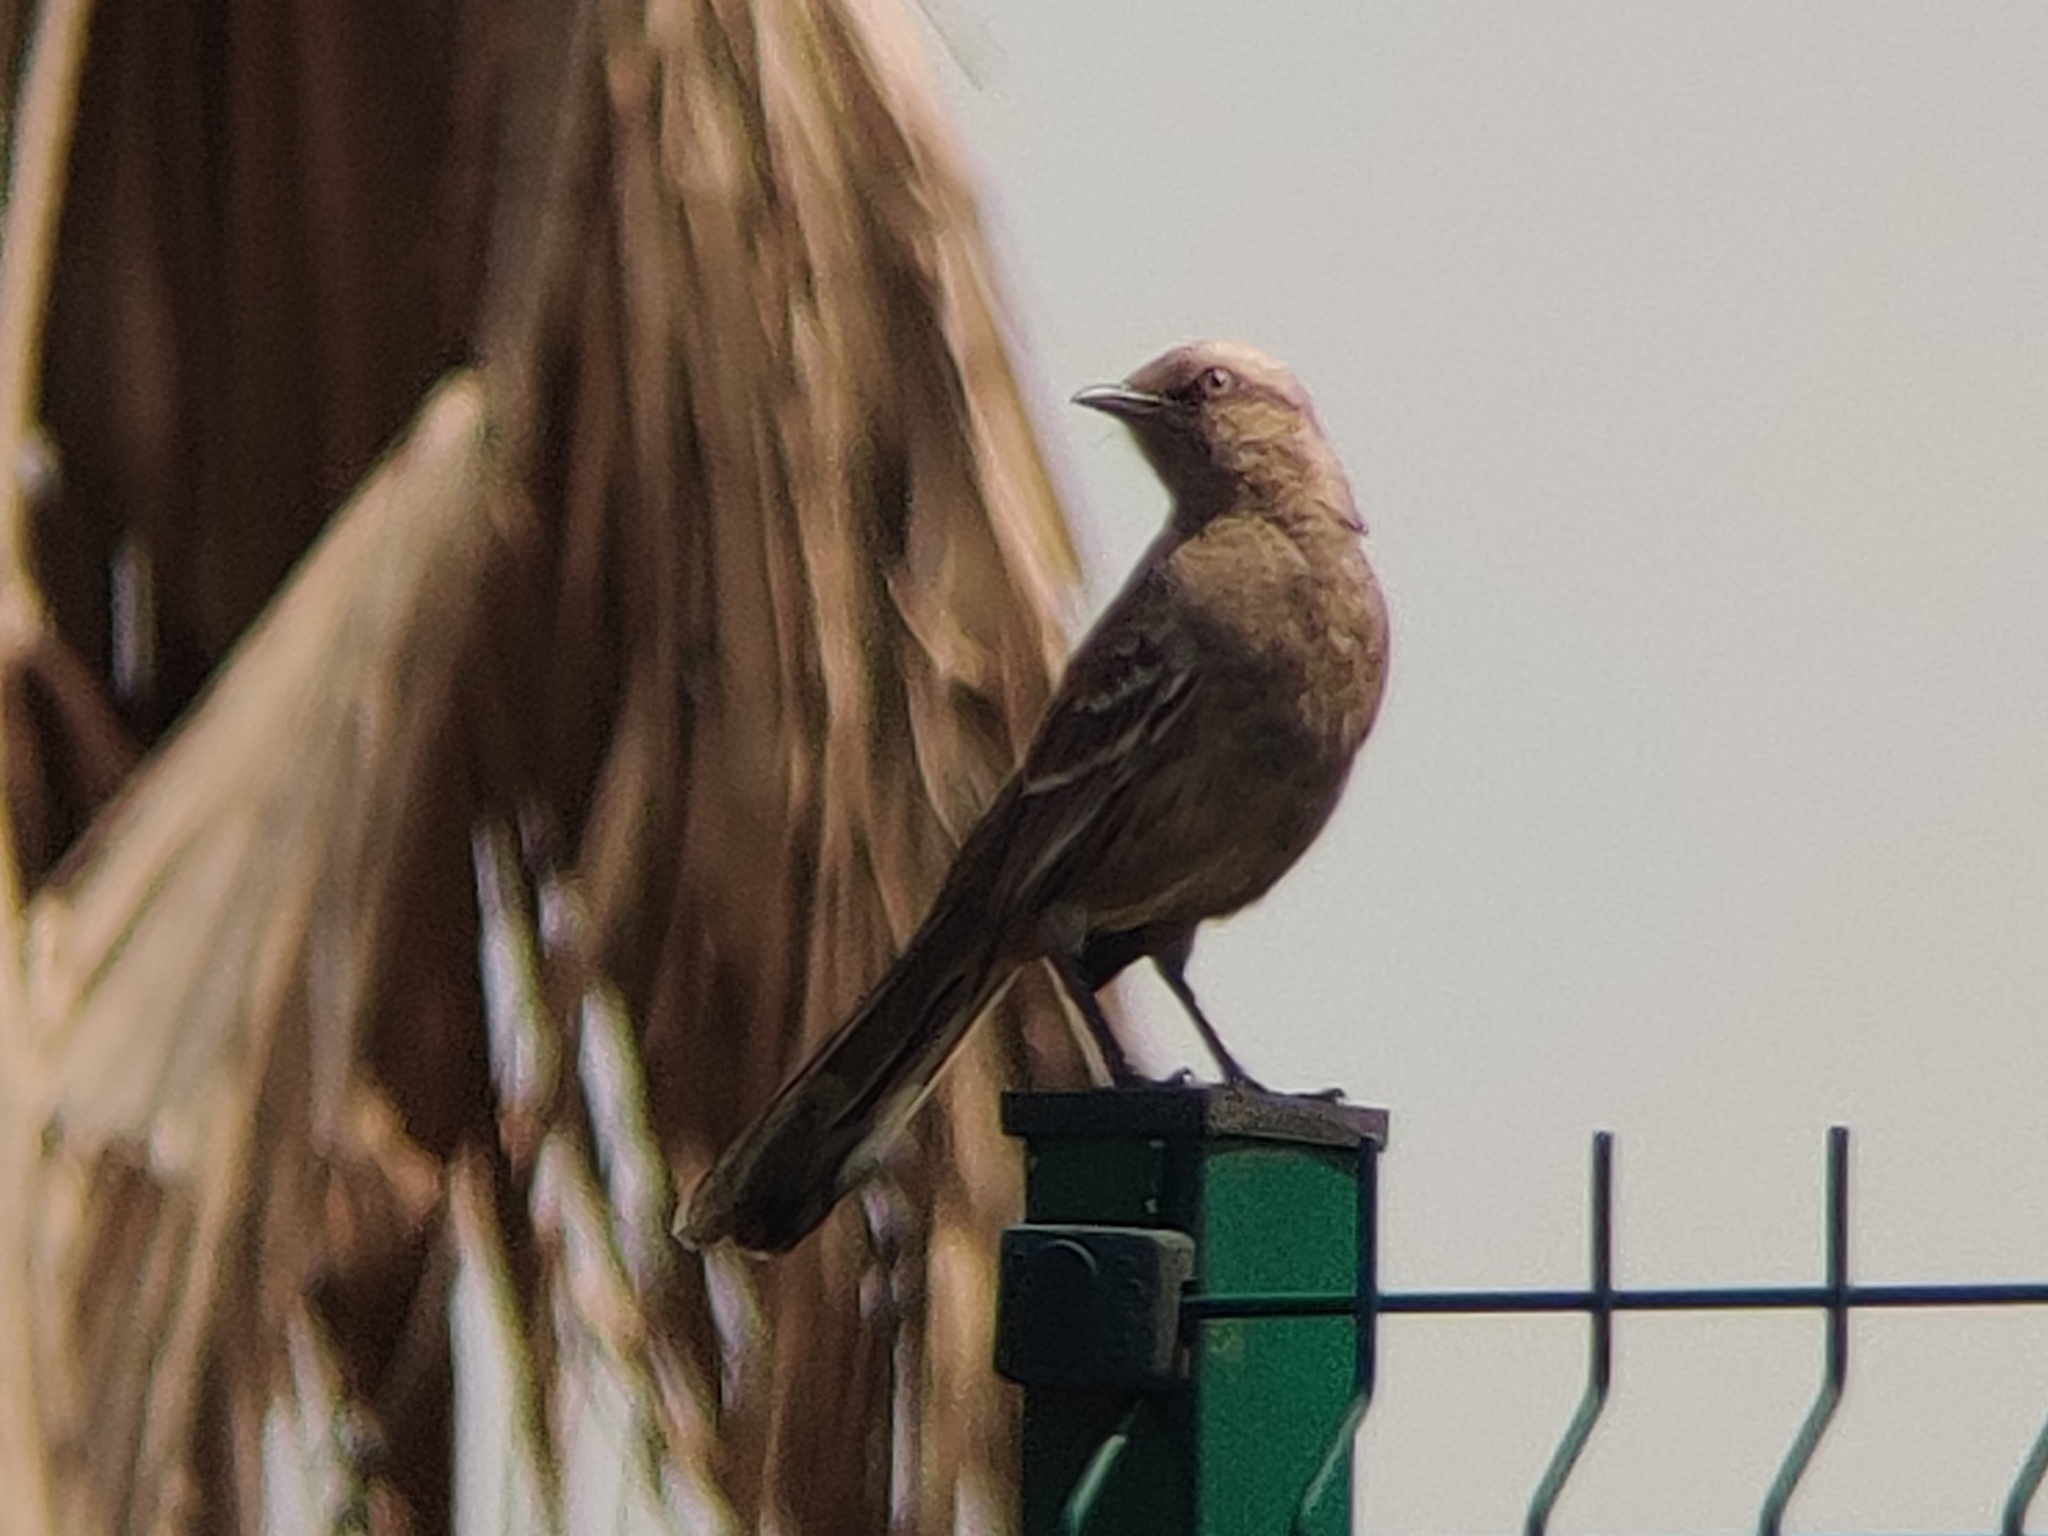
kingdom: Animalia
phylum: Chordata
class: Aves
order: Passeriformes
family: Mimidae
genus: Mimus
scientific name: Mimus saturninus
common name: Chalk-browed mockingbird
